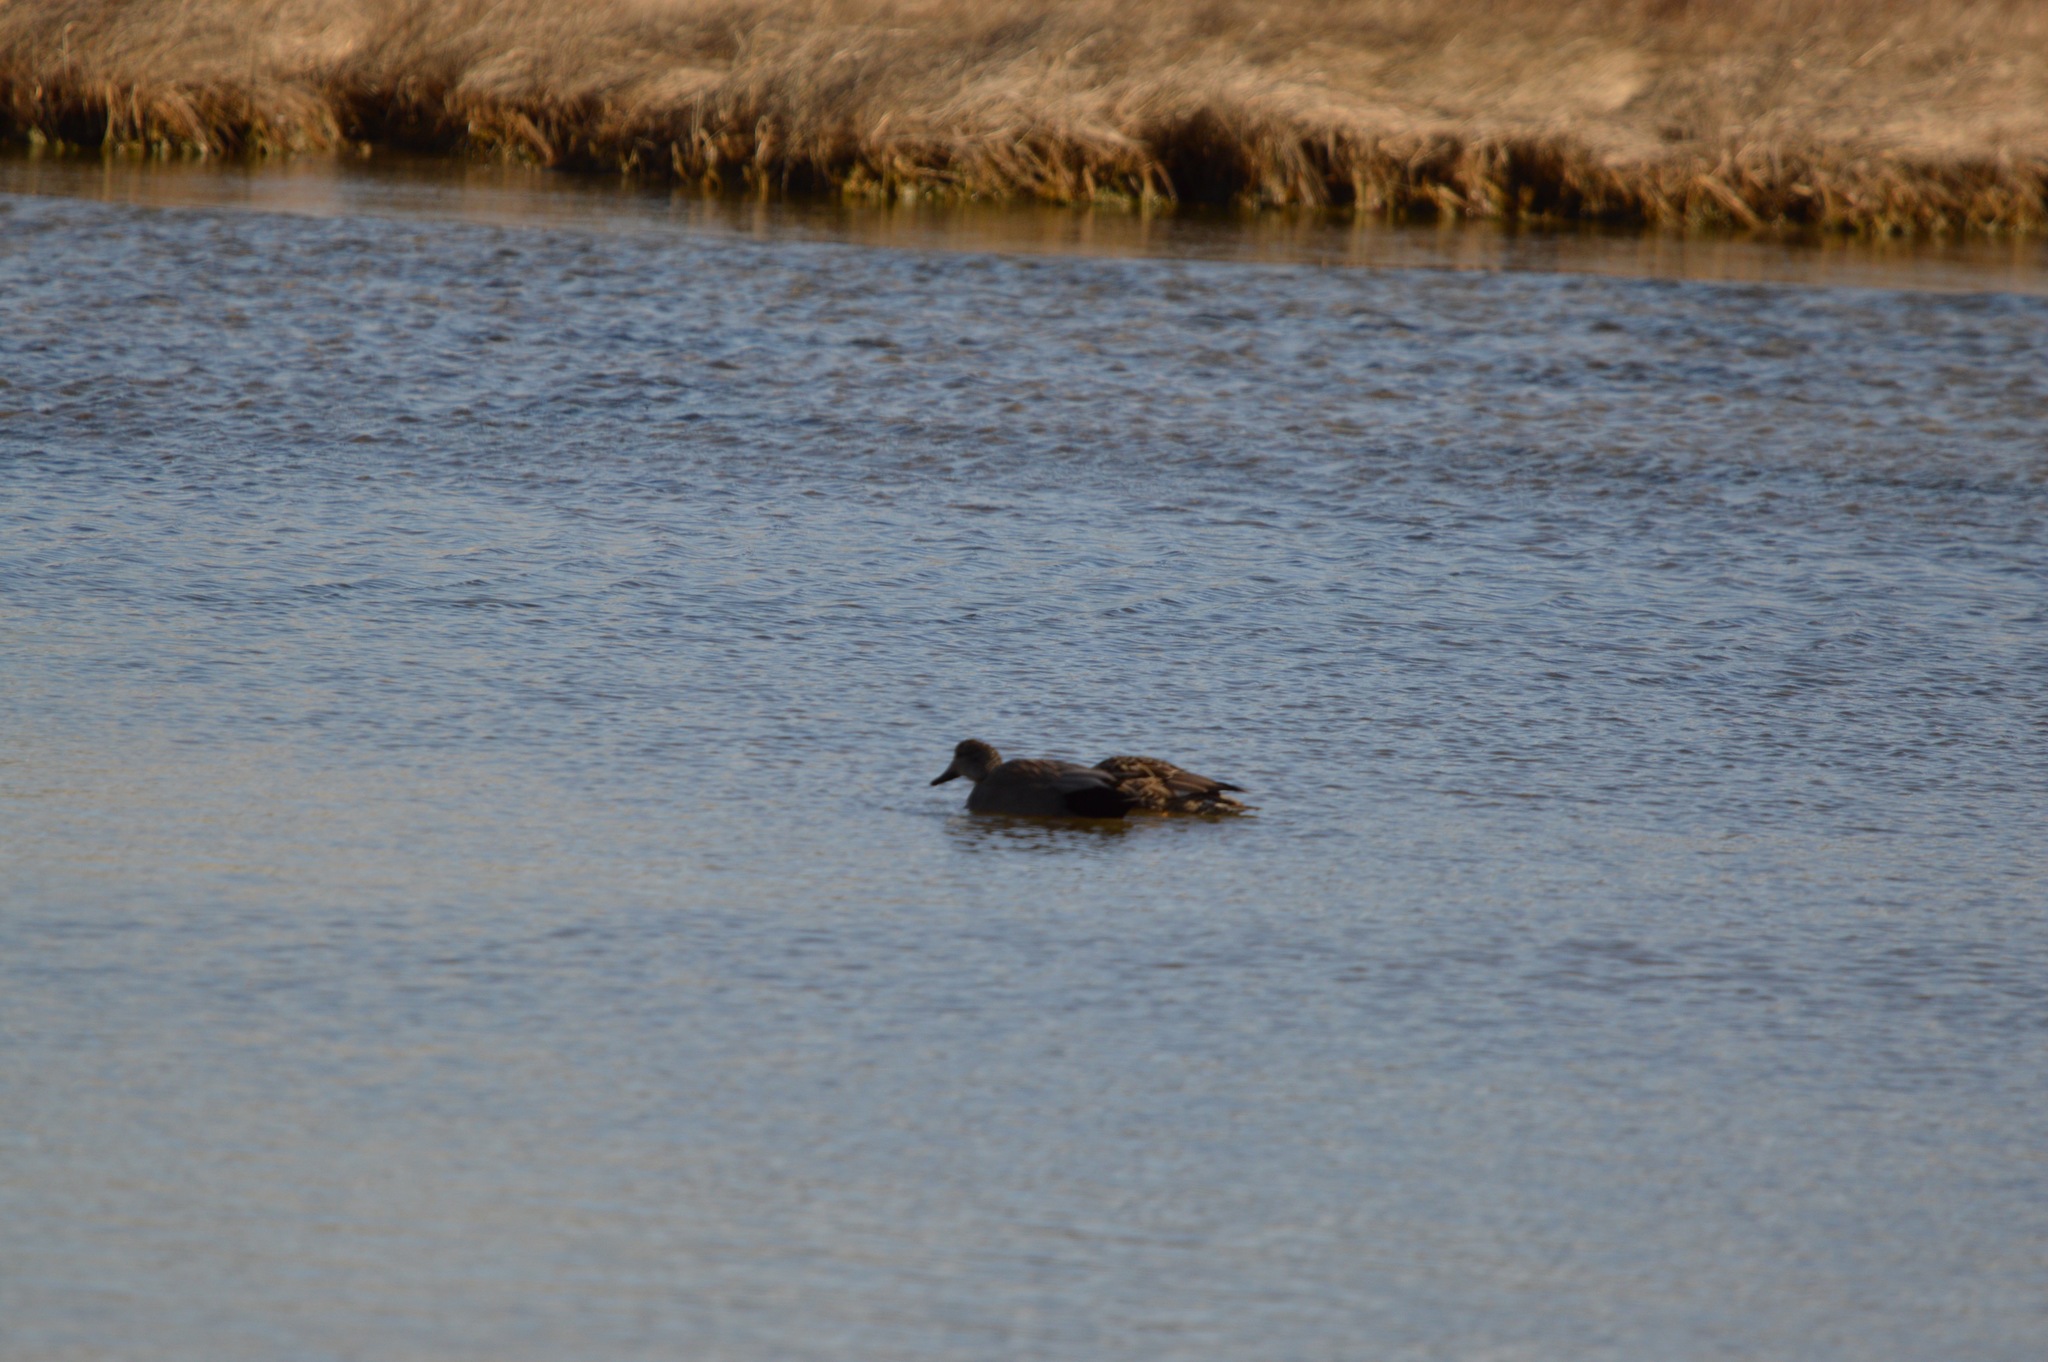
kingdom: Animalia
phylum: Chordata
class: Aves
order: Anseriformes
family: Anatidae
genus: Mareca
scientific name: Mareca strepera
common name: Gadwall
